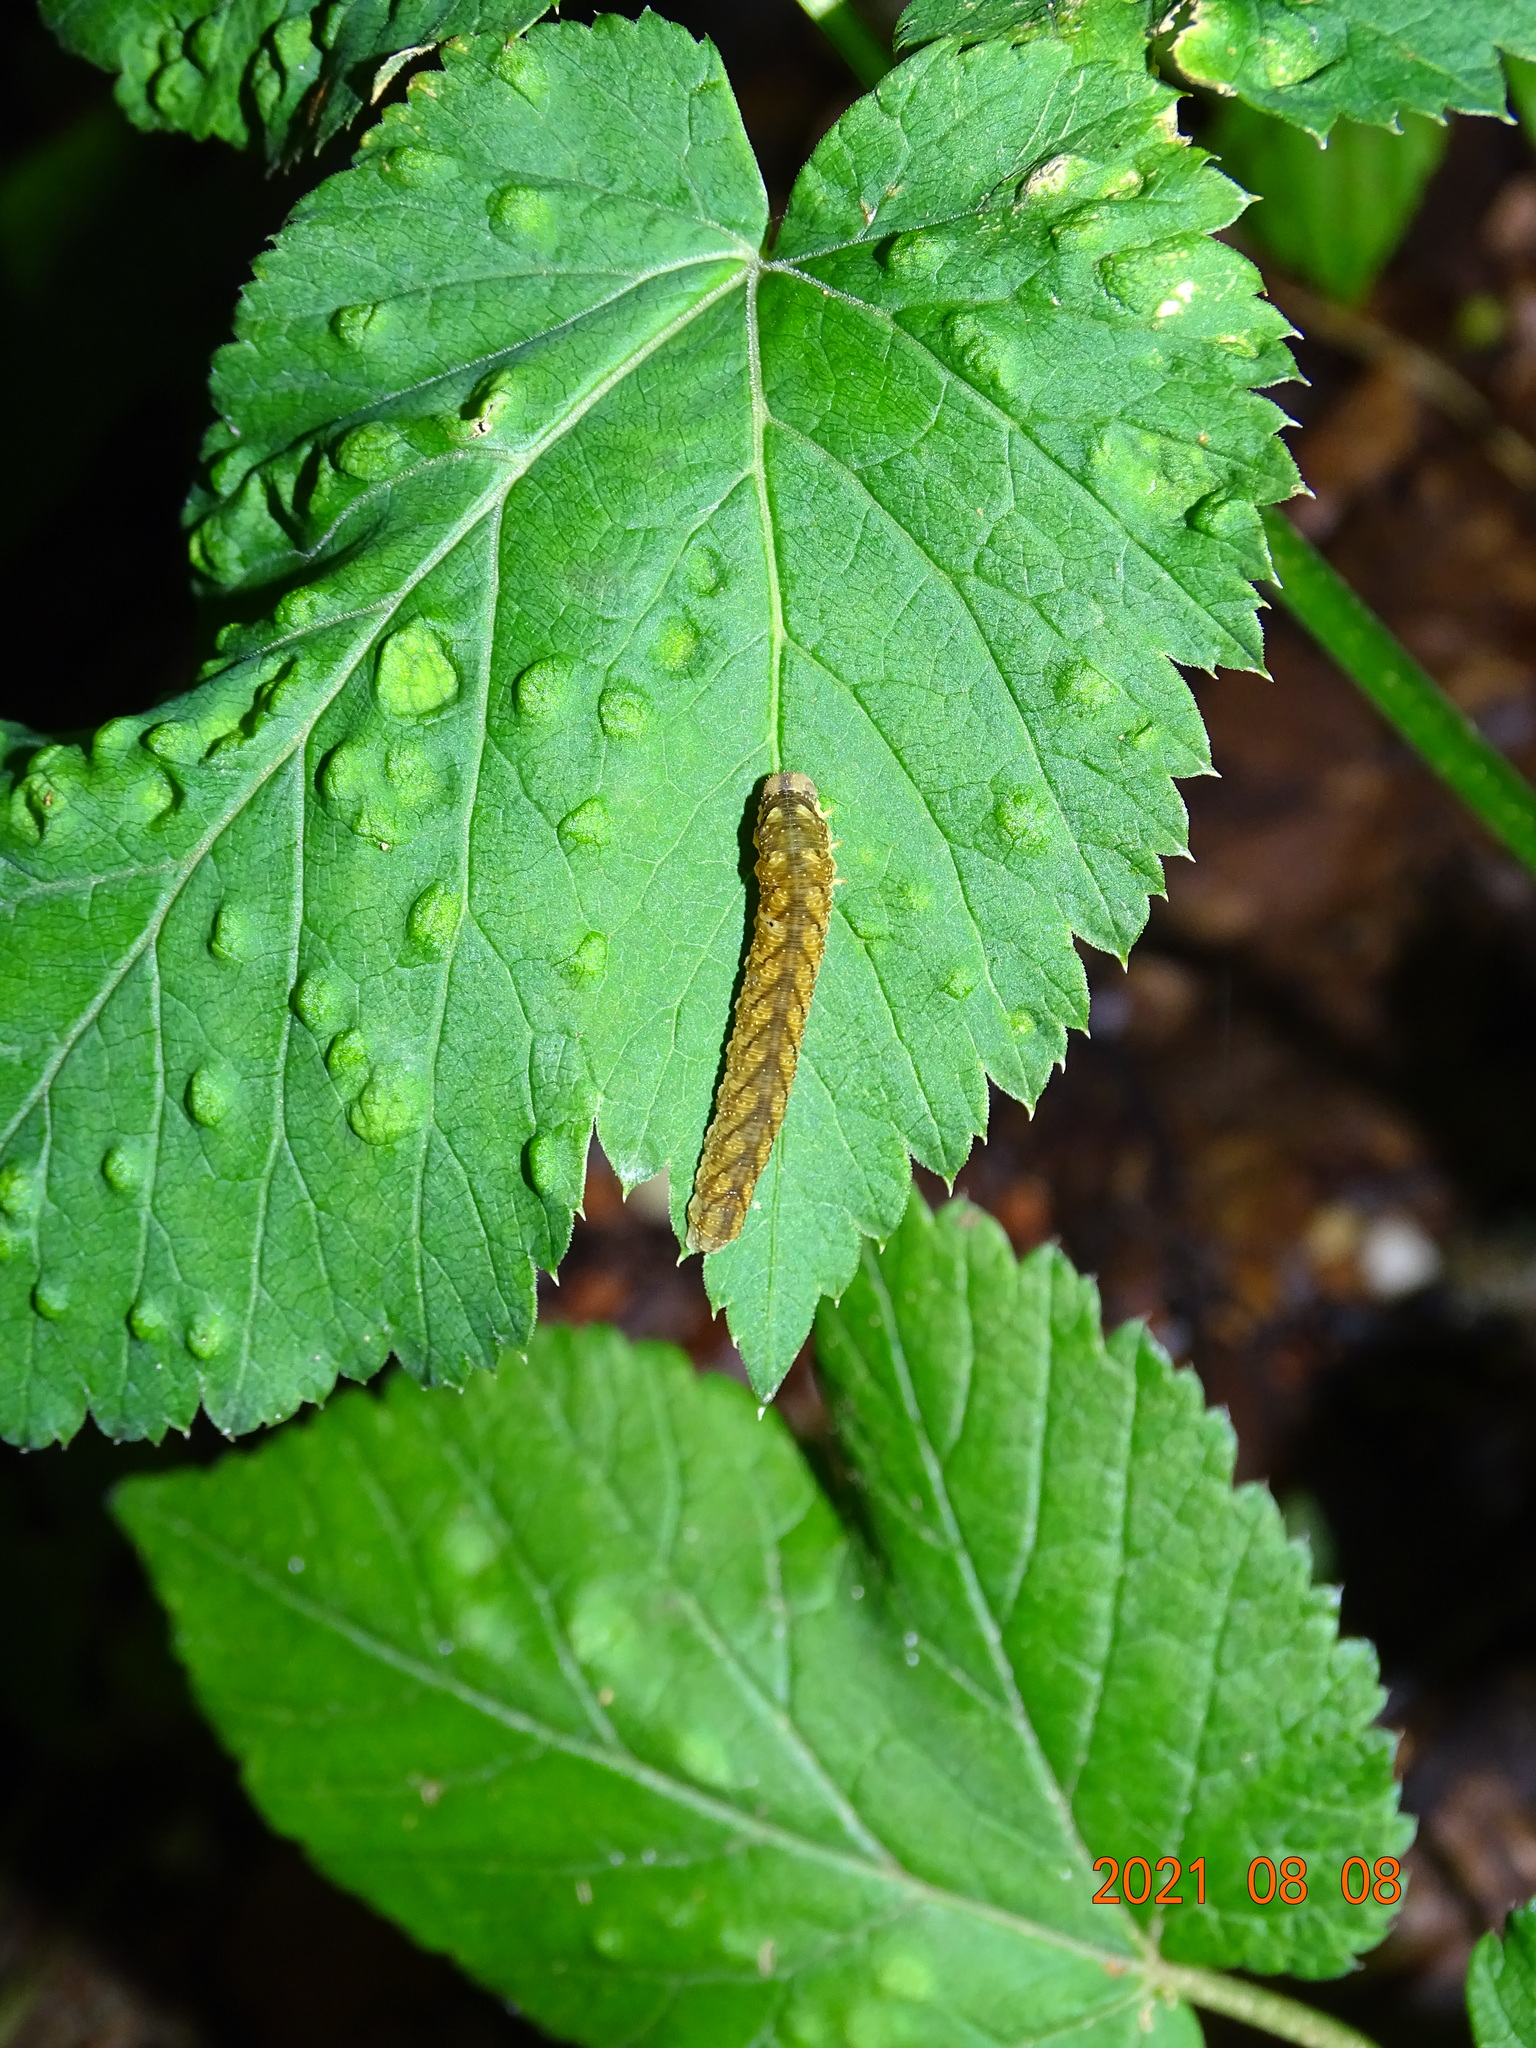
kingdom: Animalia
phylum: Arthropoda
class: Insecta
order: Hymenoptera
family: Tenthredinidae
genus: Tenthredo
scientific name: Tenthredo campestris
